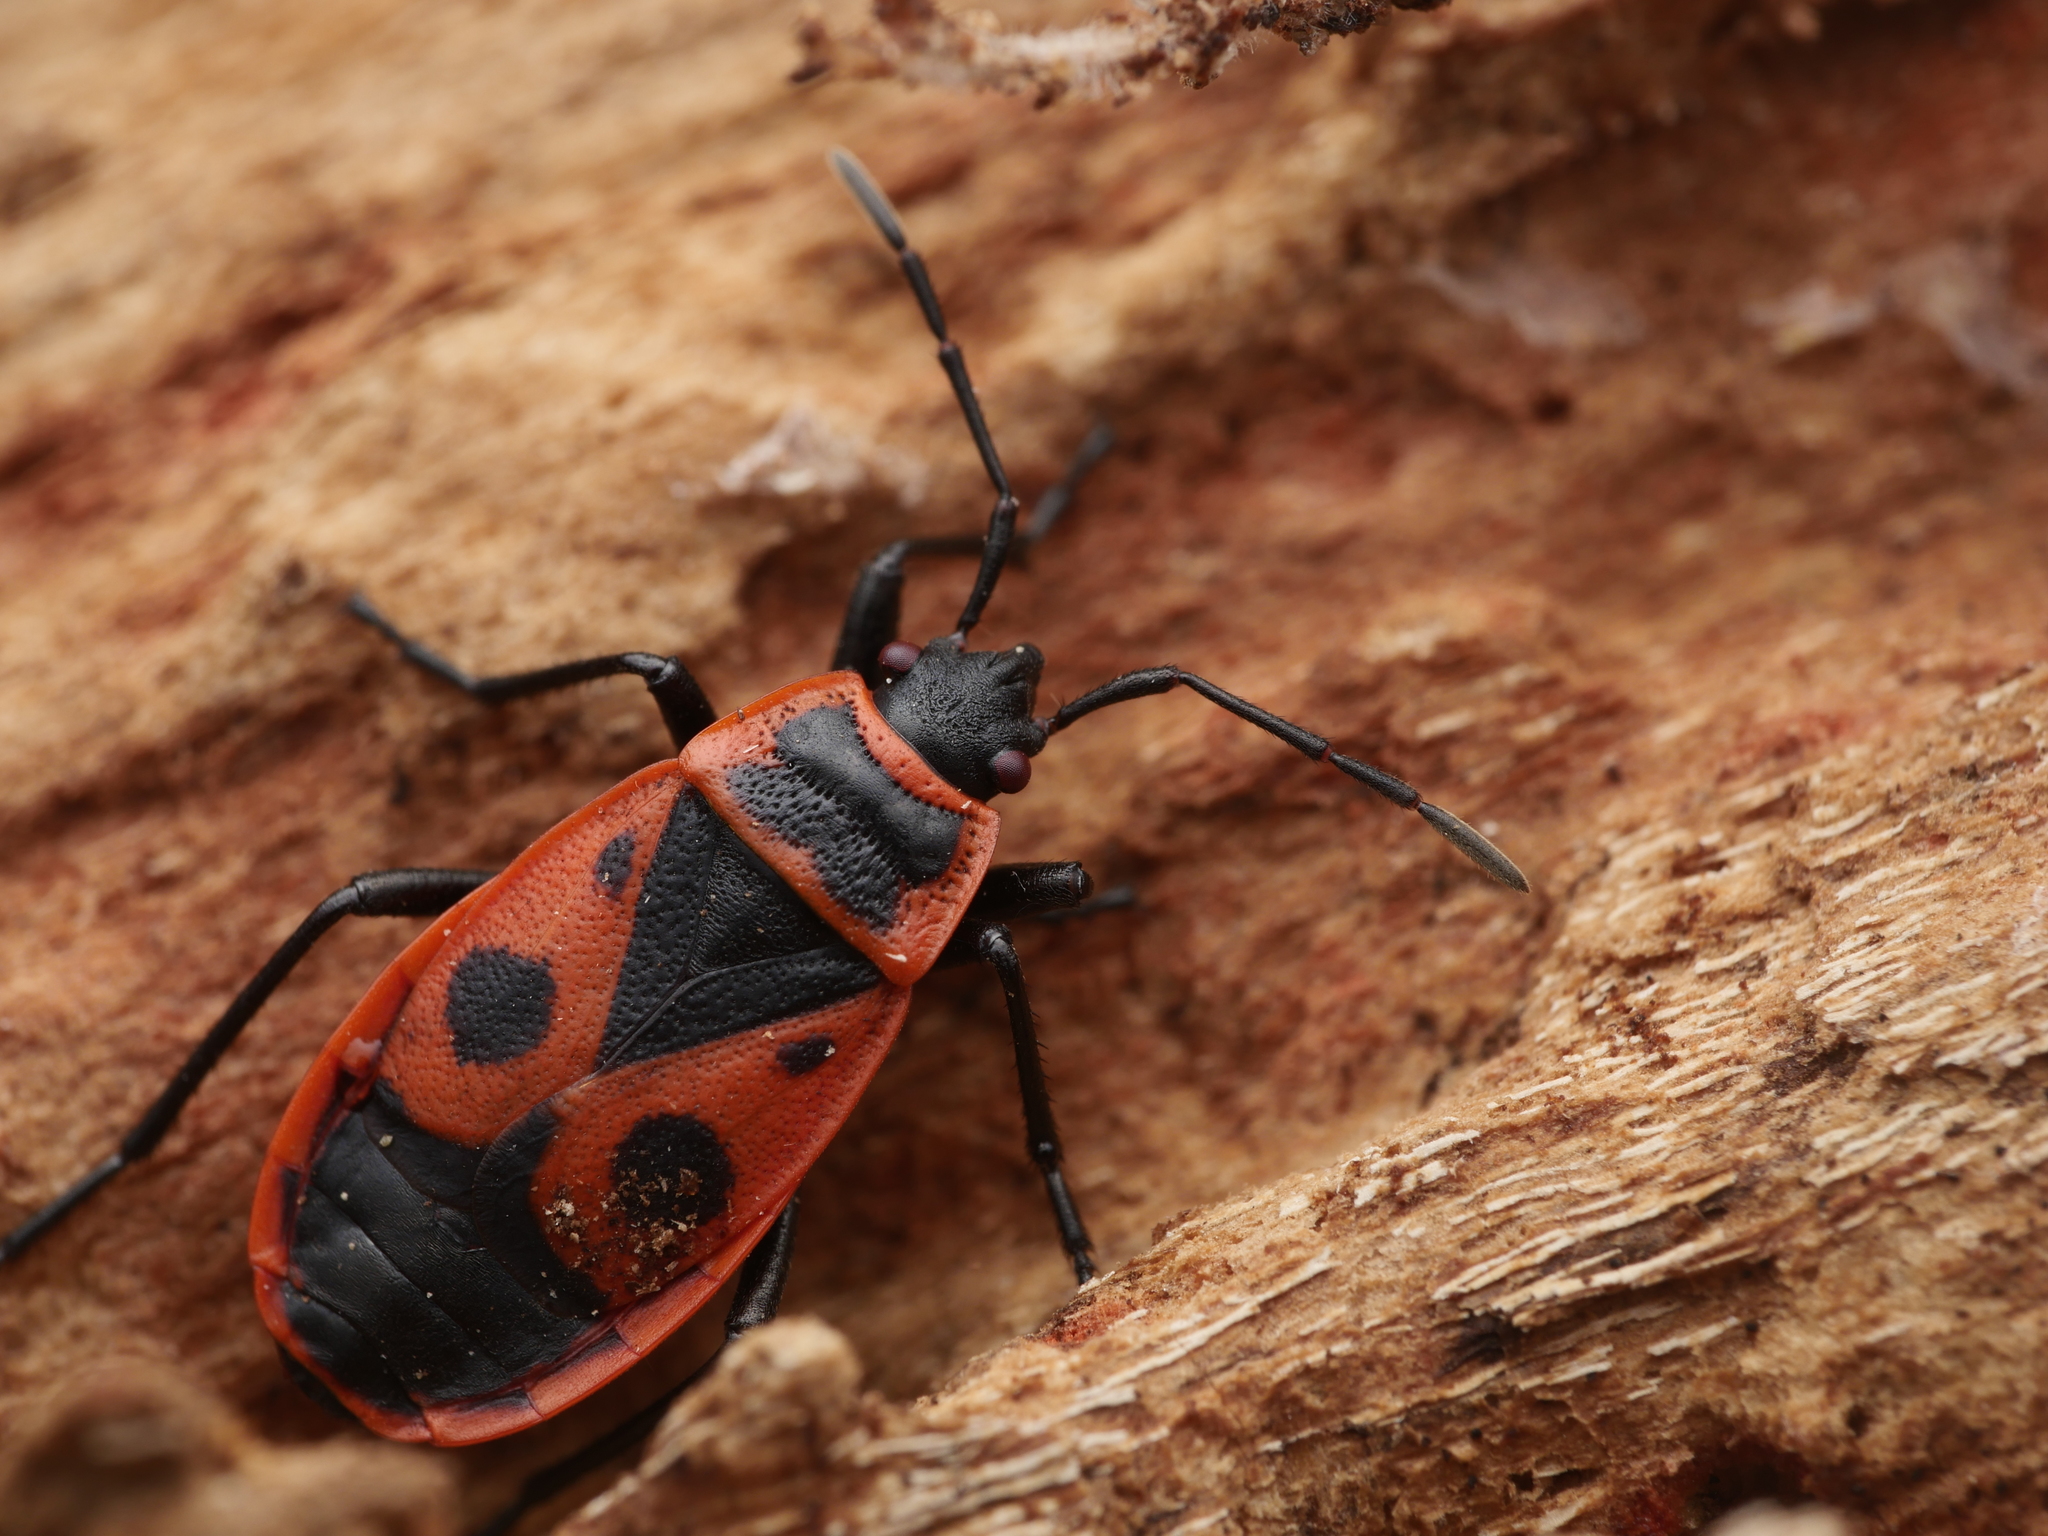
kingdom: Animalia
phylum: Arthropoda
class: Insecta
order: Hemiptera
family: Pyrrhocoridae
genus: Pyrrhocoris
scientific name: Pyrrhocoris apterus
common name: Firebug
